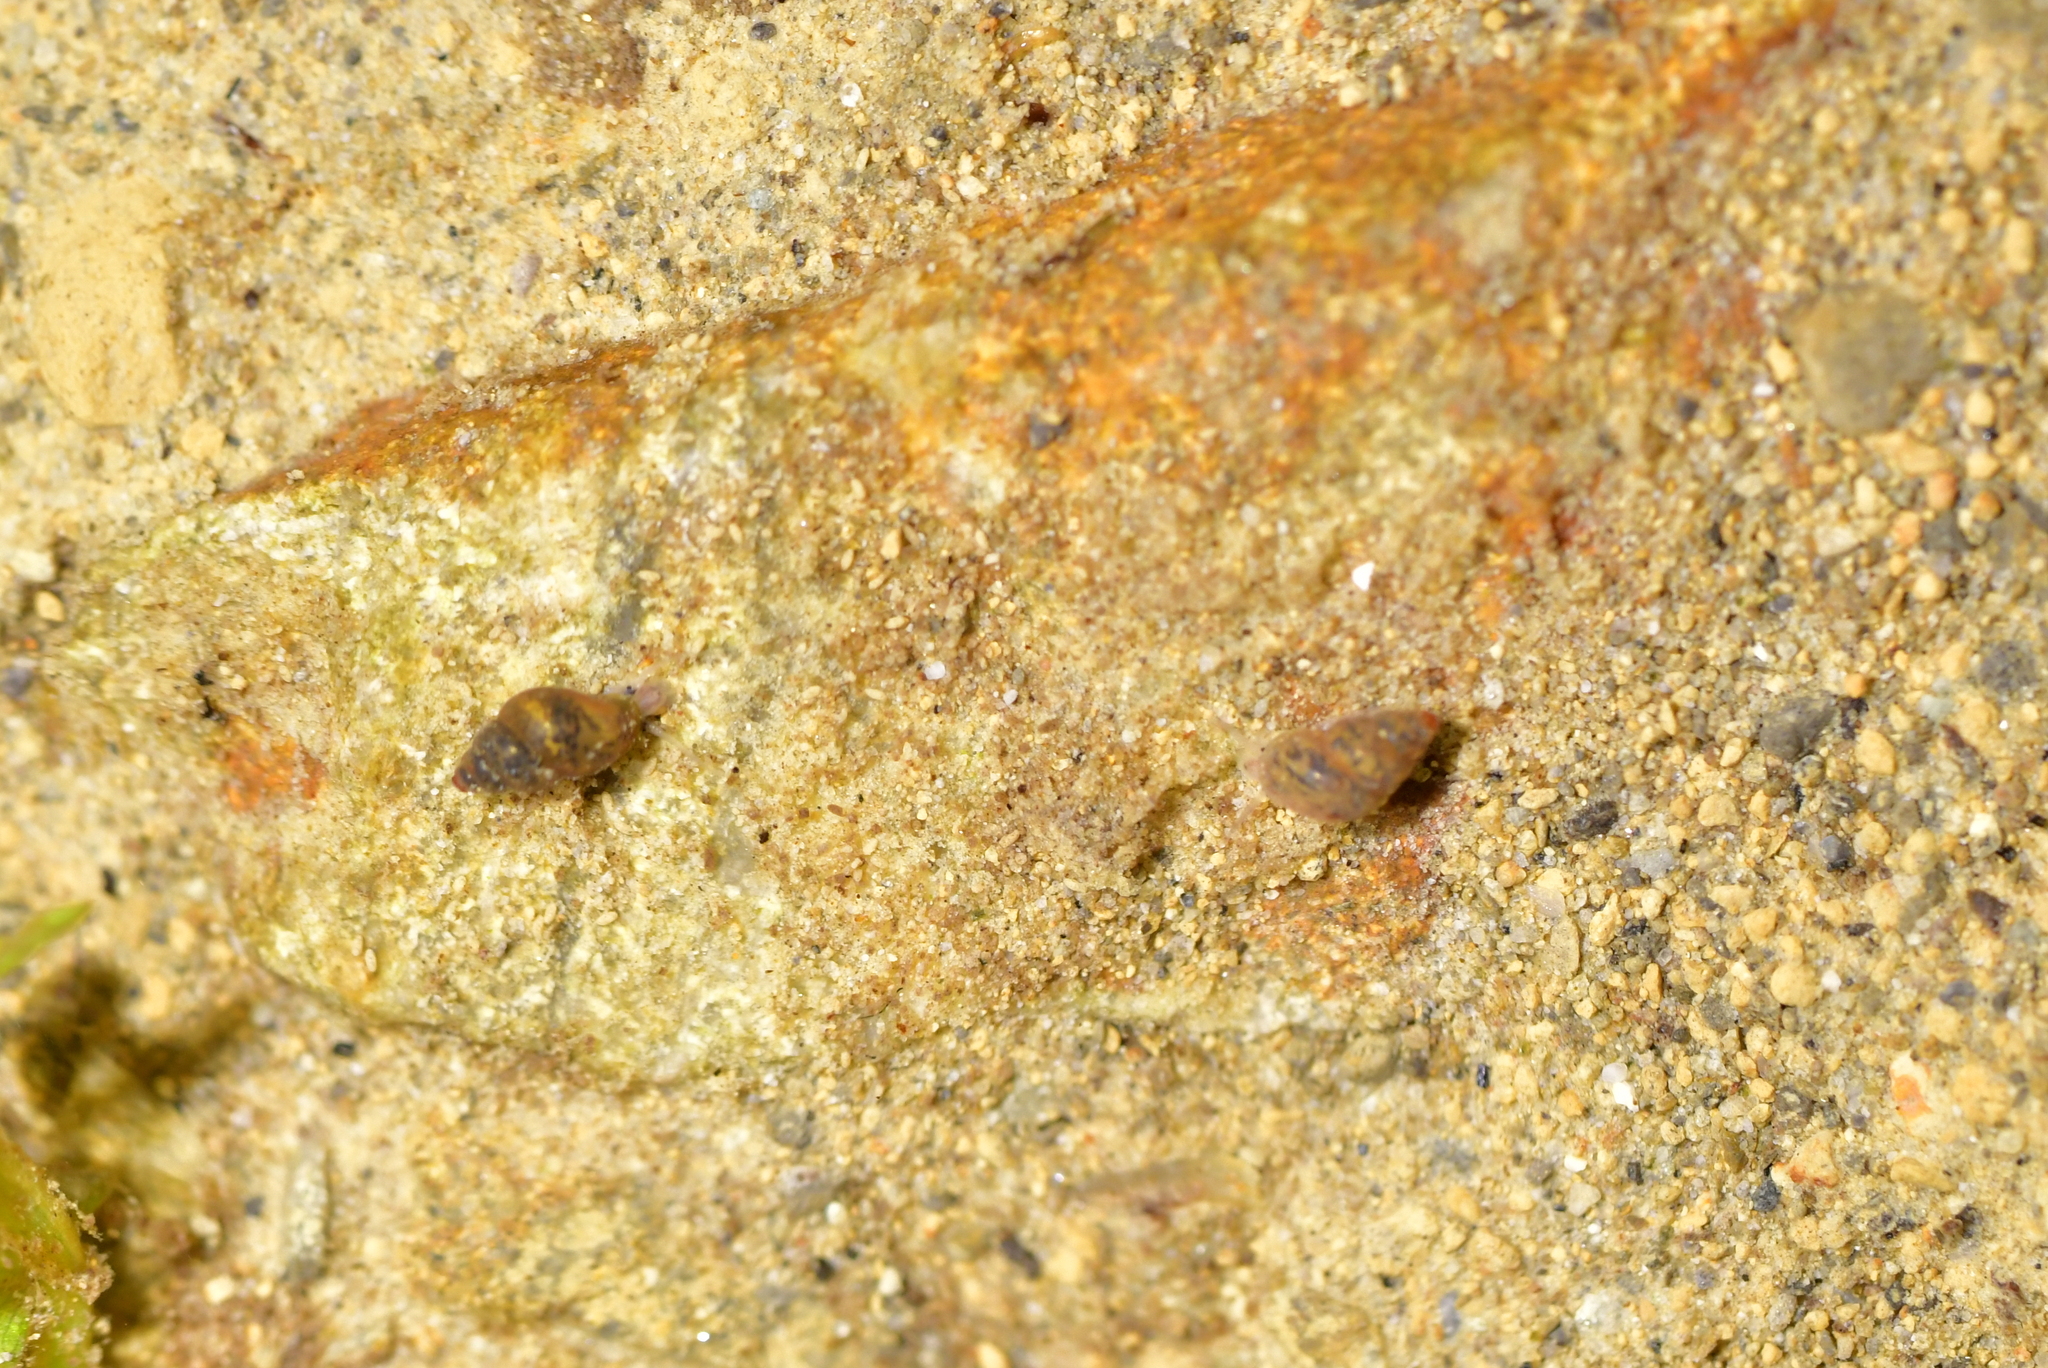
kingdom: Animalia
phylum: Mollusca
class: Gastropoda
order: Littorinimorpha
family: Tateidae
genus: Potamopyrgus
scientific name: Potamopyrgus antipodarum
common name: Jenkins' spire snail
